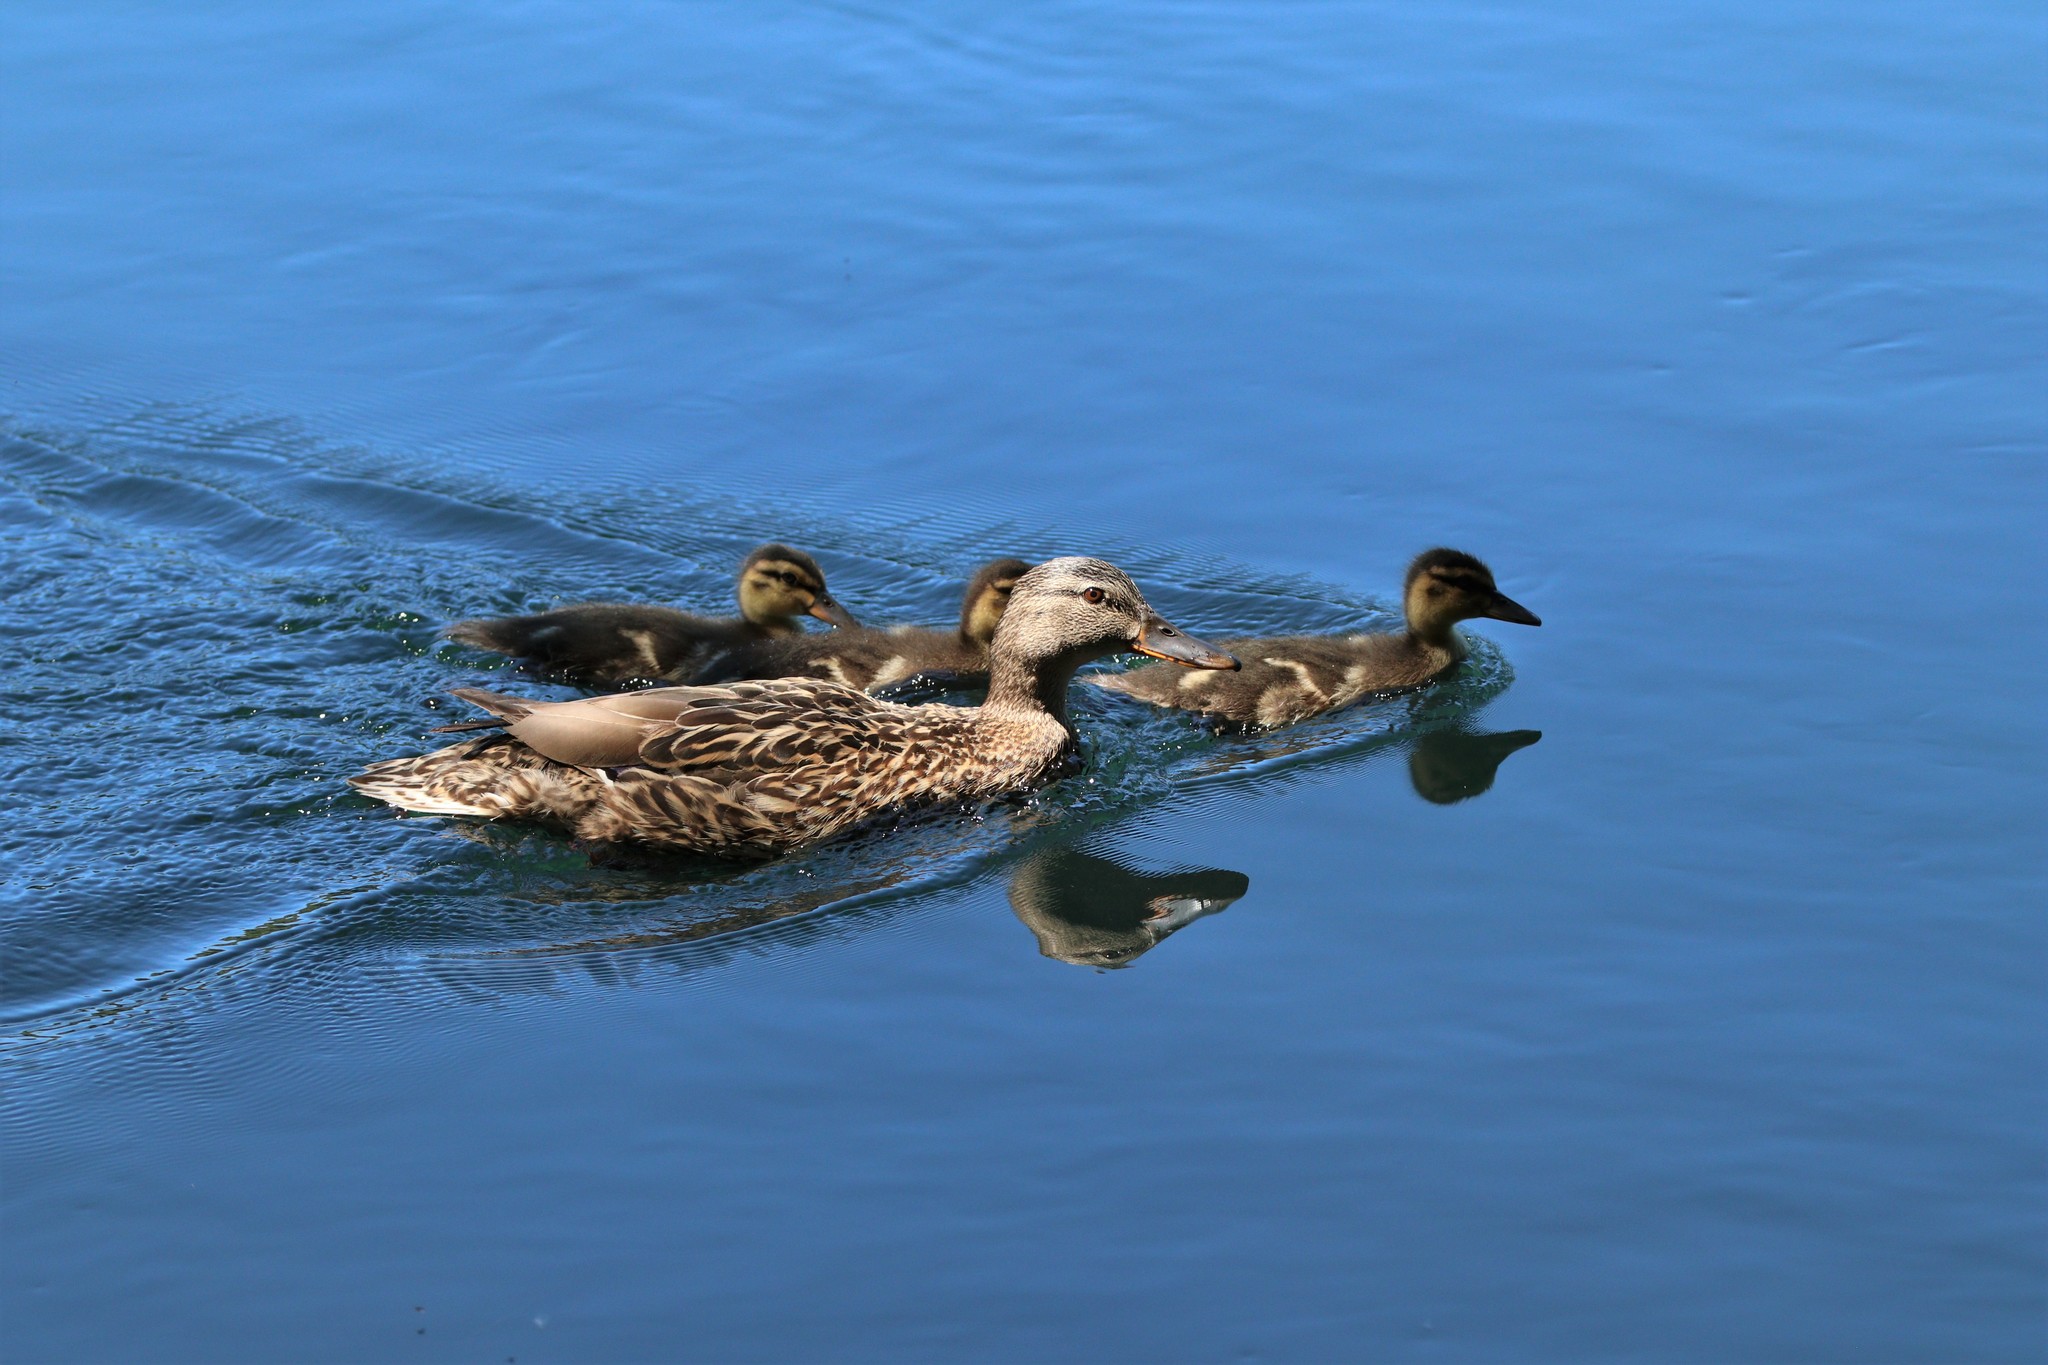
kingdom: Animalia
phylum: Chordata
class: Aves
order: Anseriformes
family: Anatidae
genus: Anas
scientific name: Anas platyrhynchos
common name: Mallard
